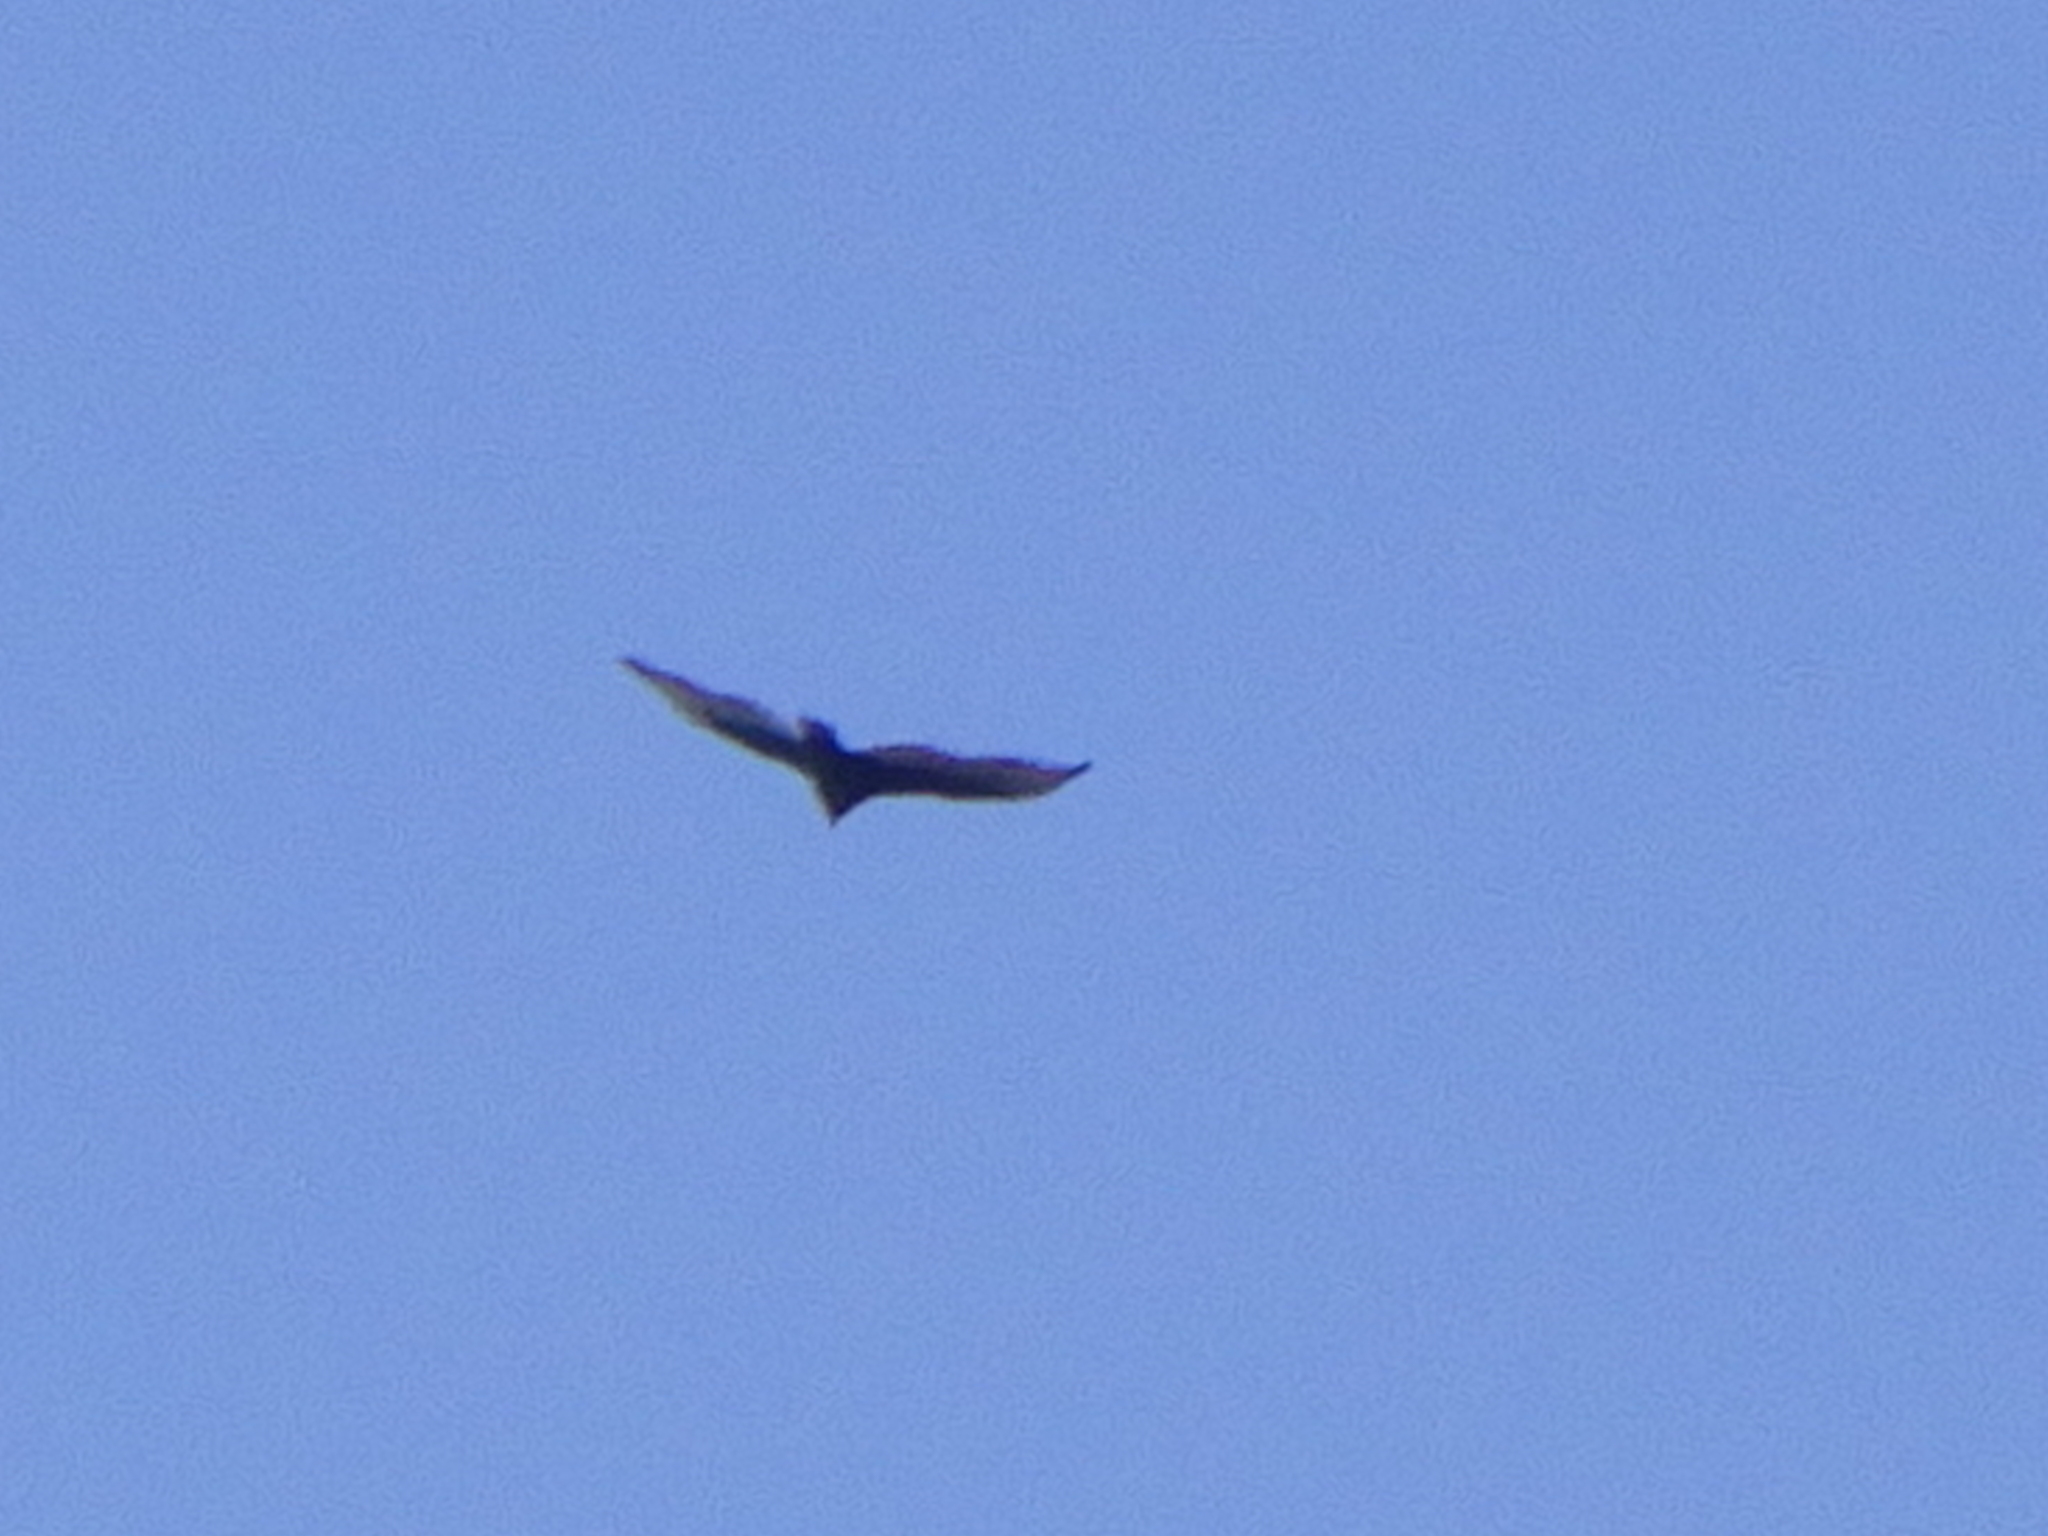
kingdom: Animalia
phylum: Chordata
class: Aves
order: Accipitriformes
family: Cathartidae
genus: Cathartes
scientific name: Cathartes aura
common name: Turkey vulture
